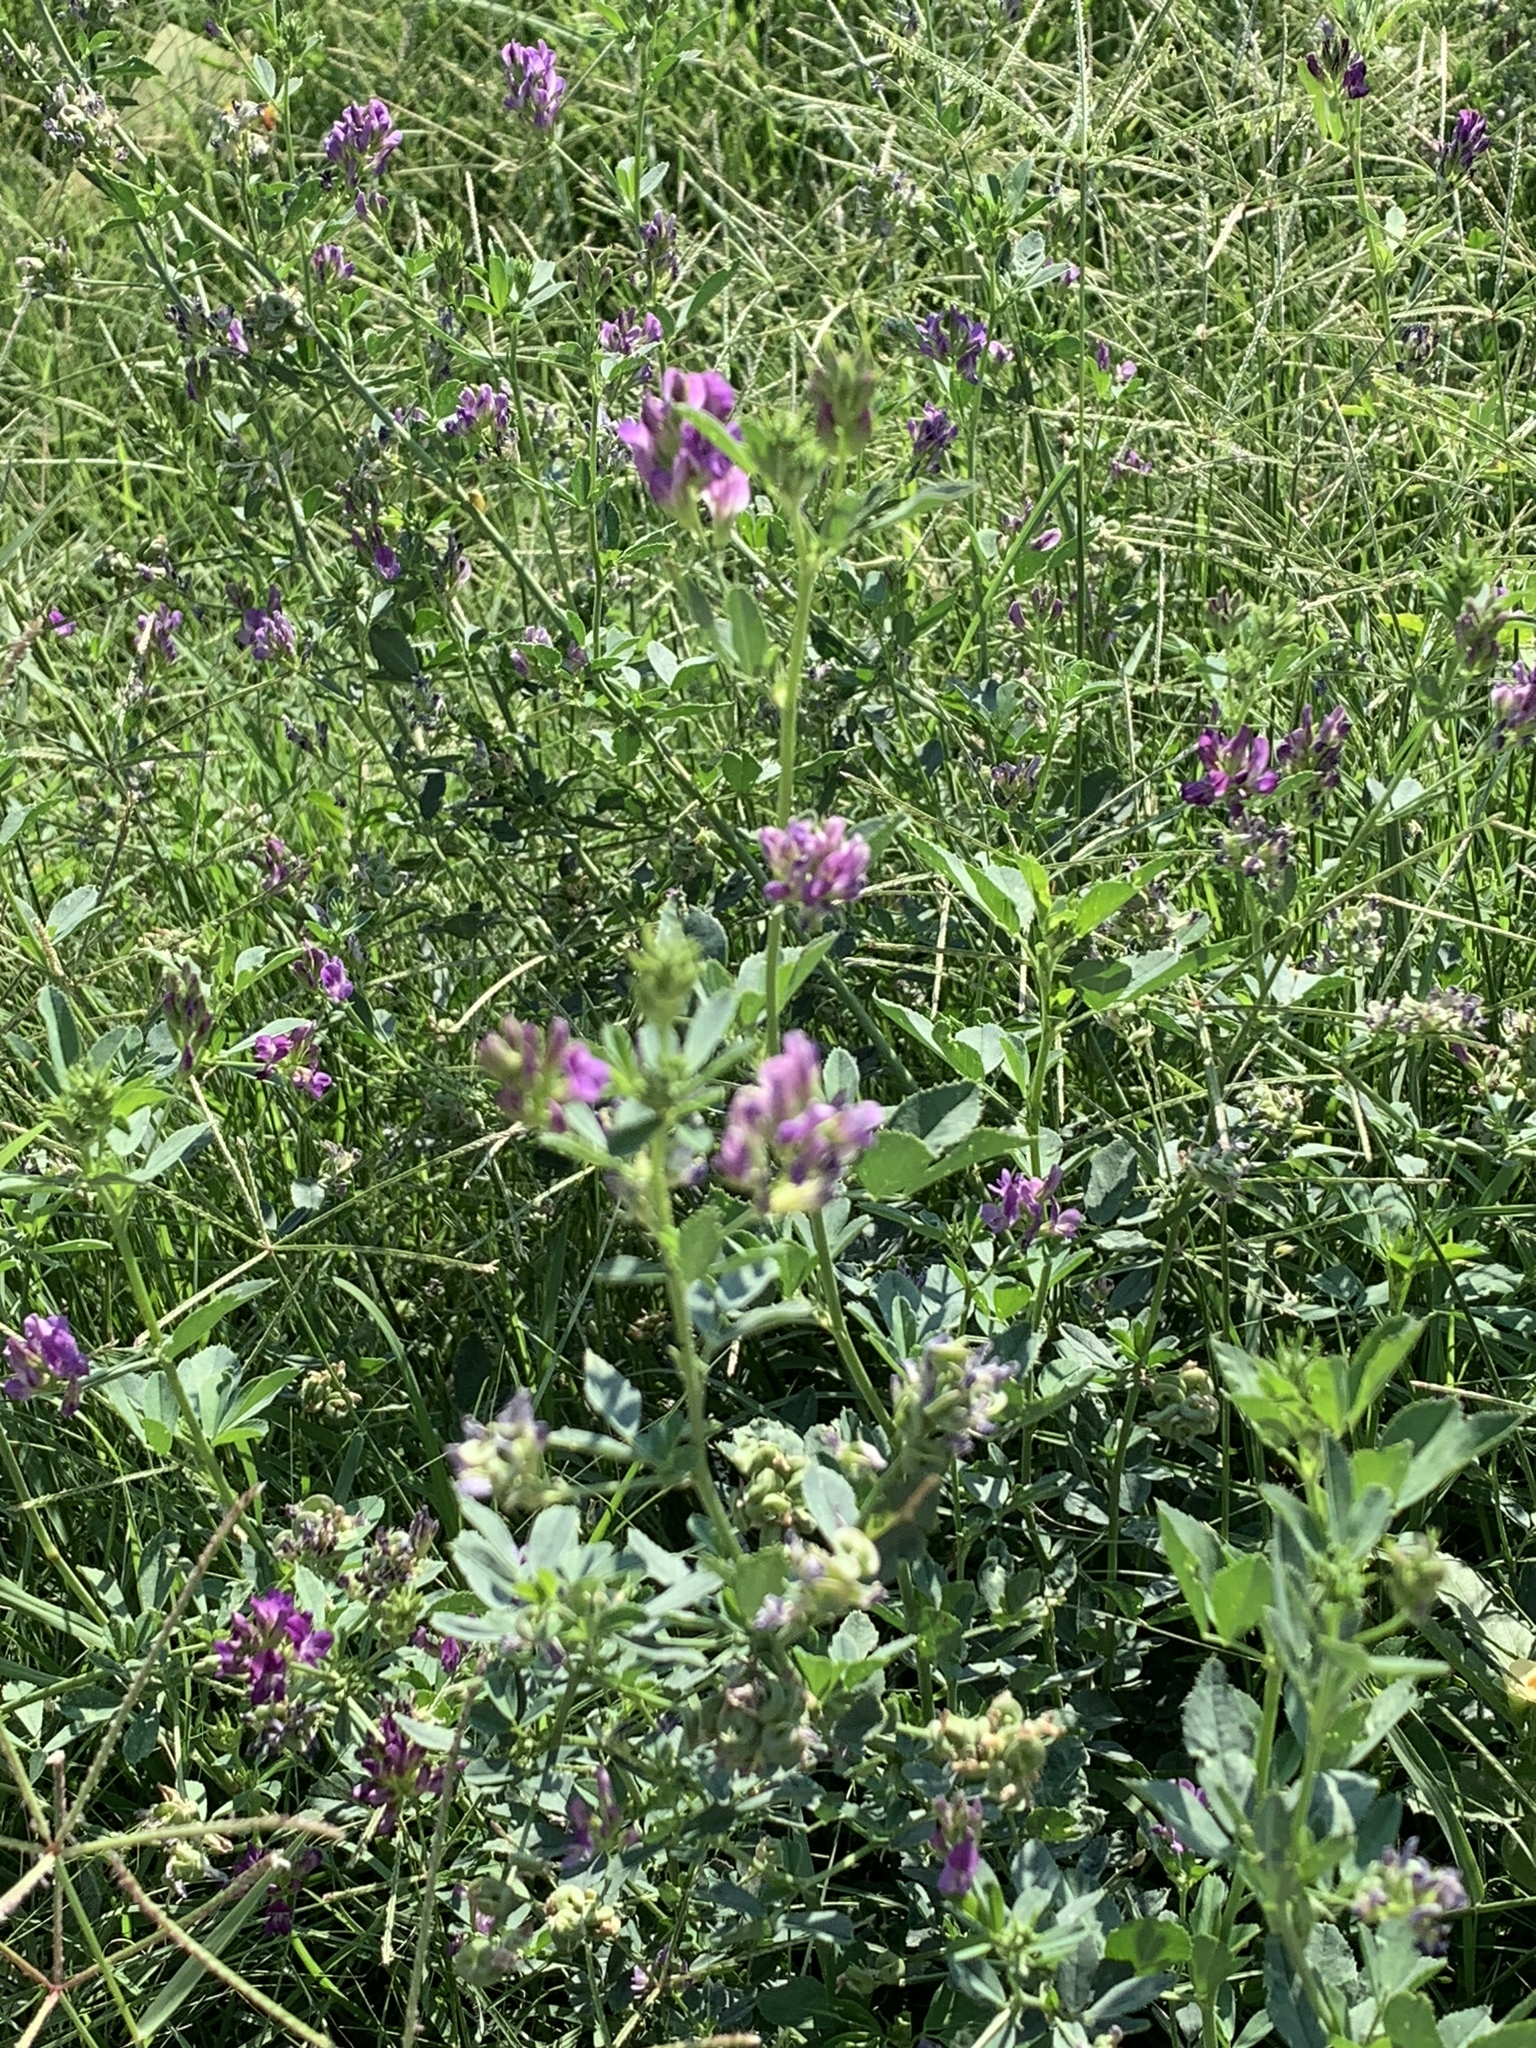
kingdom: Plantae
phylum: Tracheophyta
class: Magnoliopsida
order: Fabales
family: Fabaceae
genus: Medicago
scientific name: Medicago sativa
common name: Alfalfa
